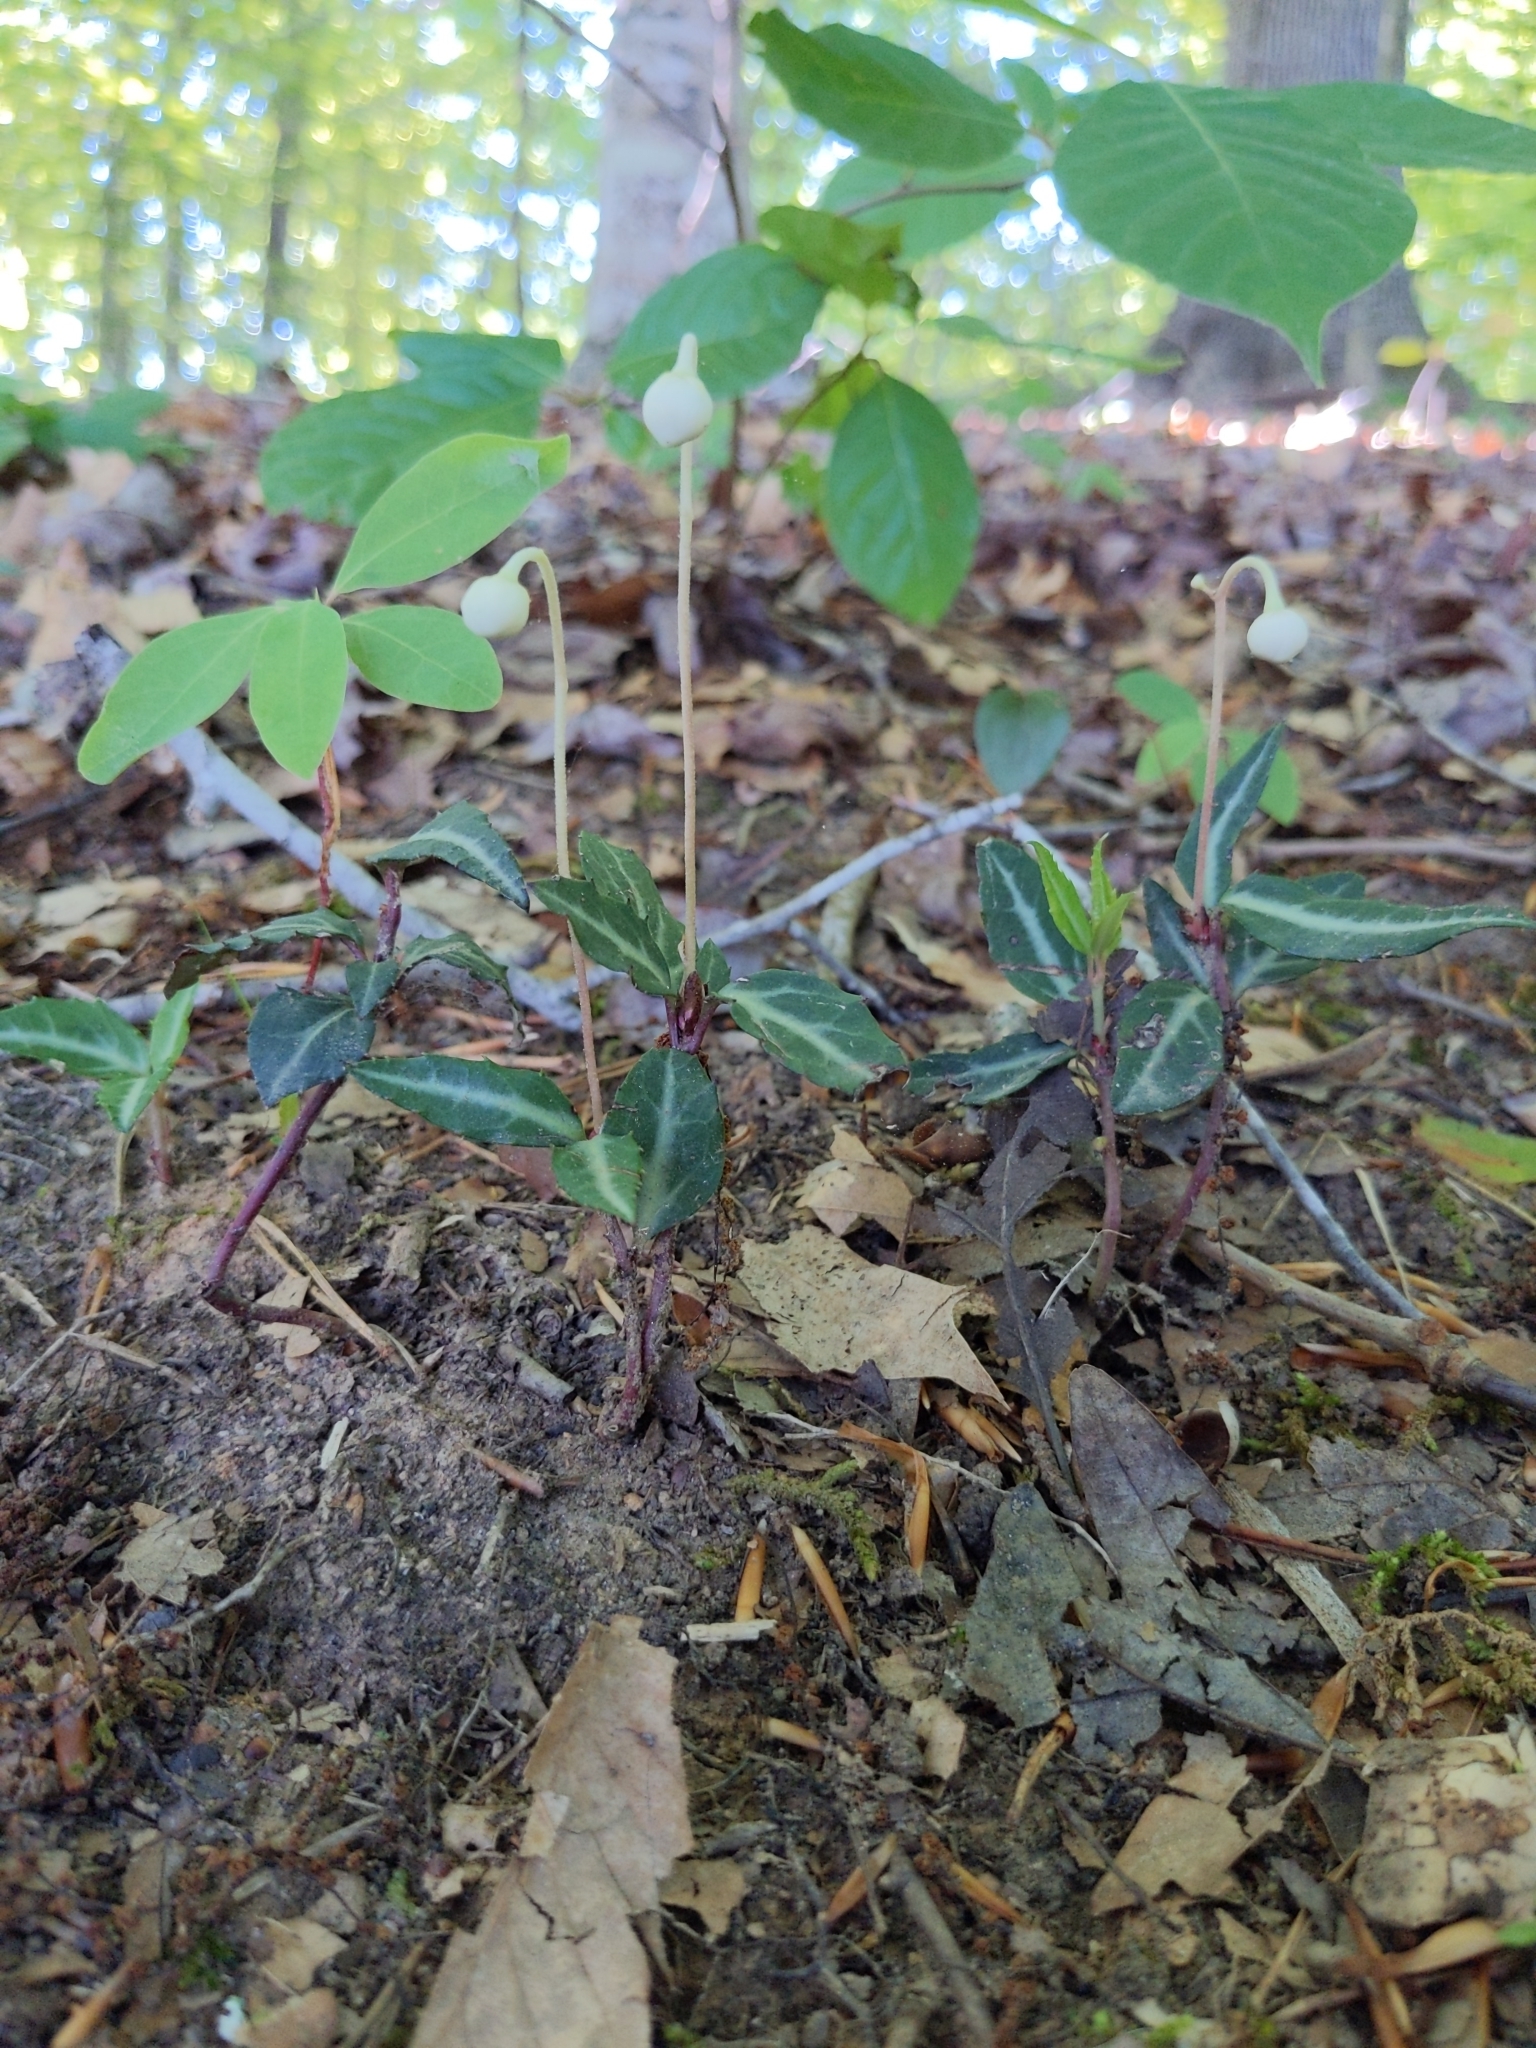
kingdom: Plantae
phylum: Tracheophyta
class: Magnoliopsida
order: Ericales
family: Ericaceae
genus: Chimaphila
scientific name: Chimaphila maculata
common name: Spotted pipsissewa
